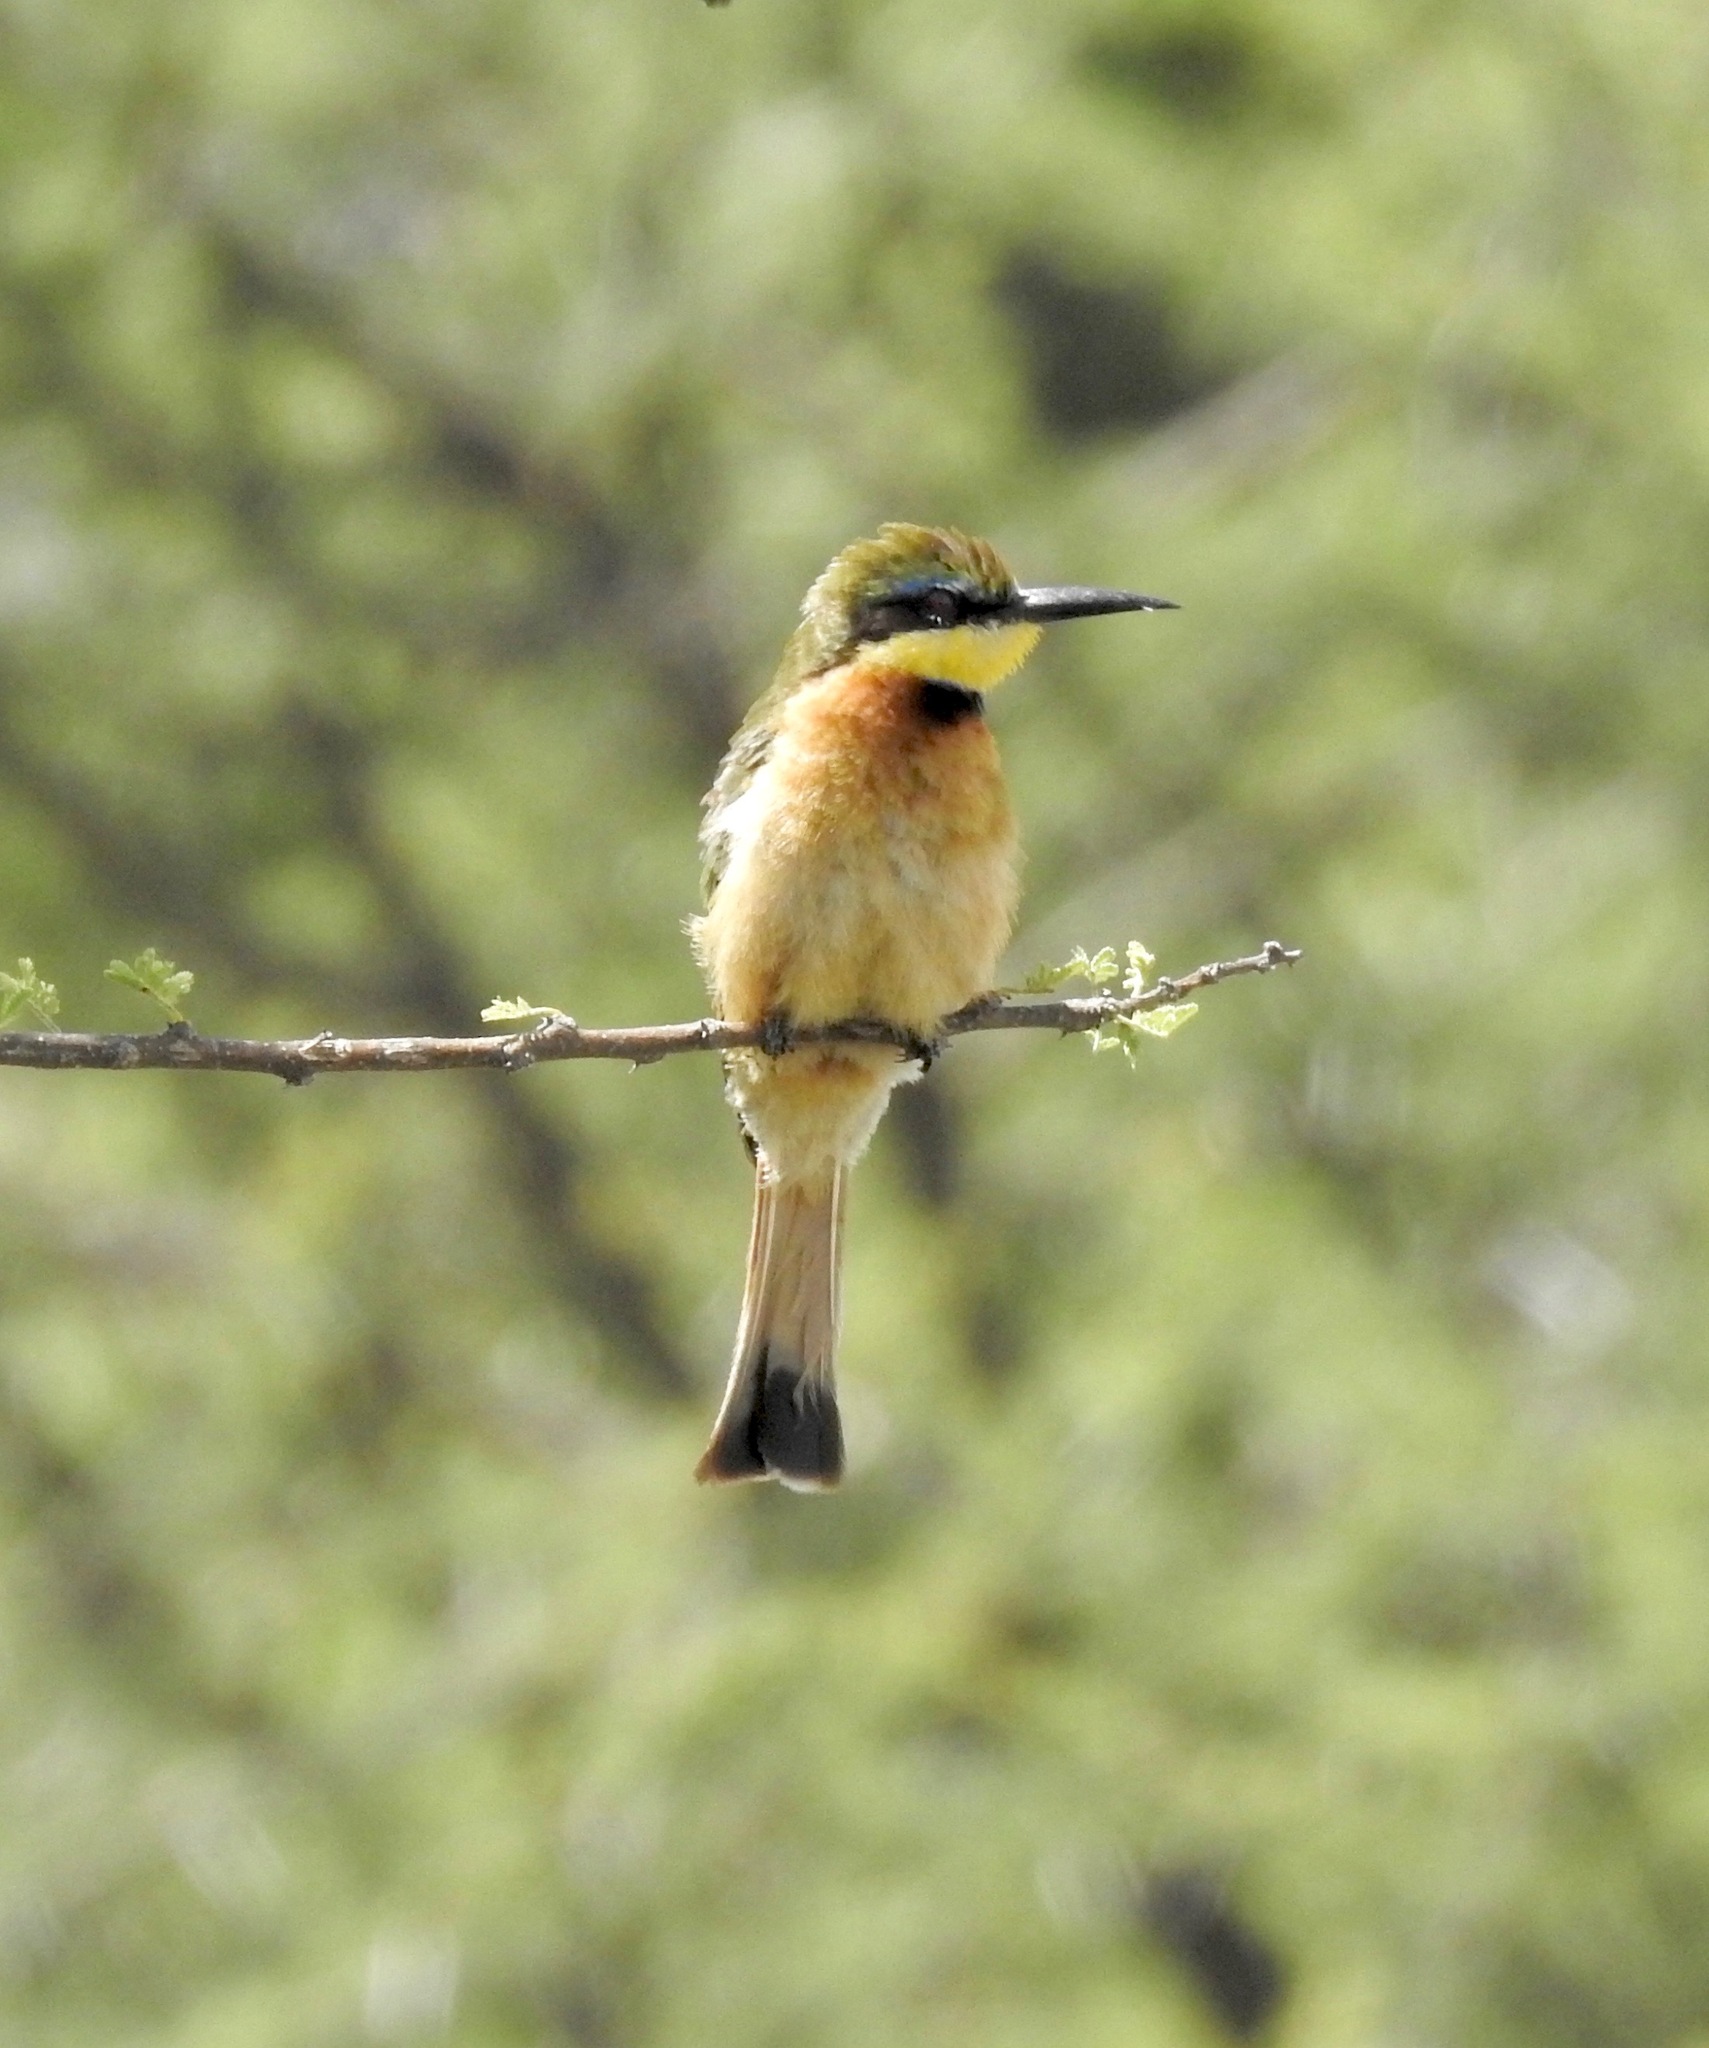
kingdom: Animalia
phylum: Chordata
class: Aves
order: Coraciiformes
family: Meropidae
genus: Merops
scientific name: Merops pusillus
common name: Little bee-eater
